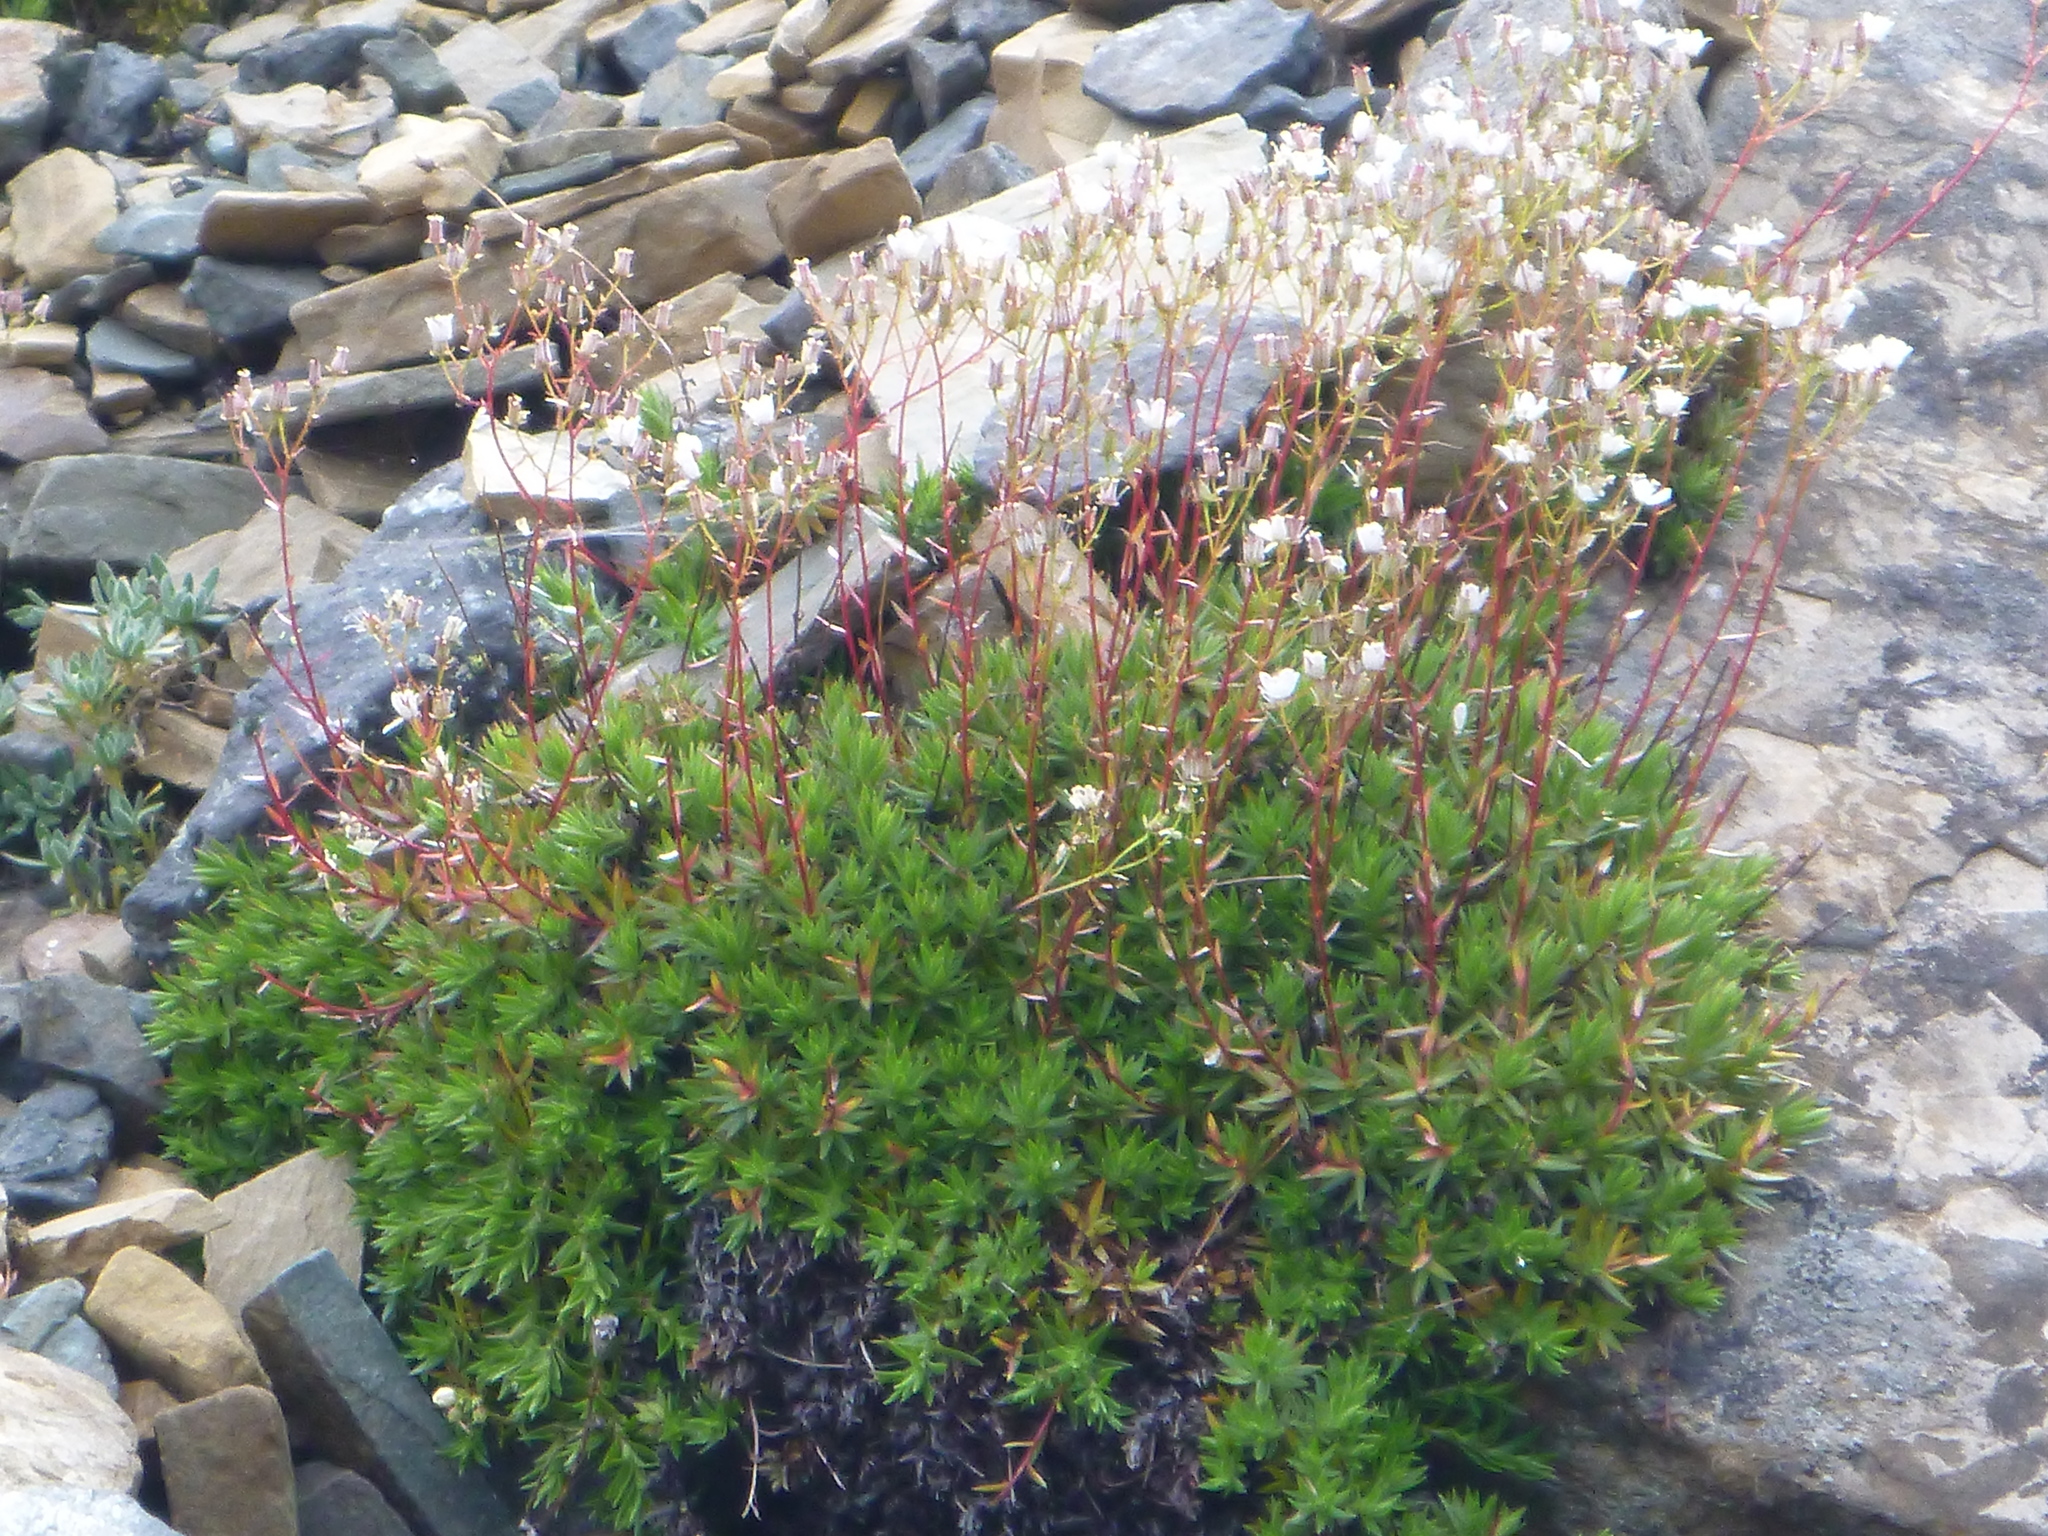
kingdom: Plantae
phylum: Tracheophyta
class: Magnoliopsida
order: Saxifragales
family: Saxifragaceae
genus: Saxifraga
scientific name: Saxifraga bronchialis
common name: Matted saxifrage
